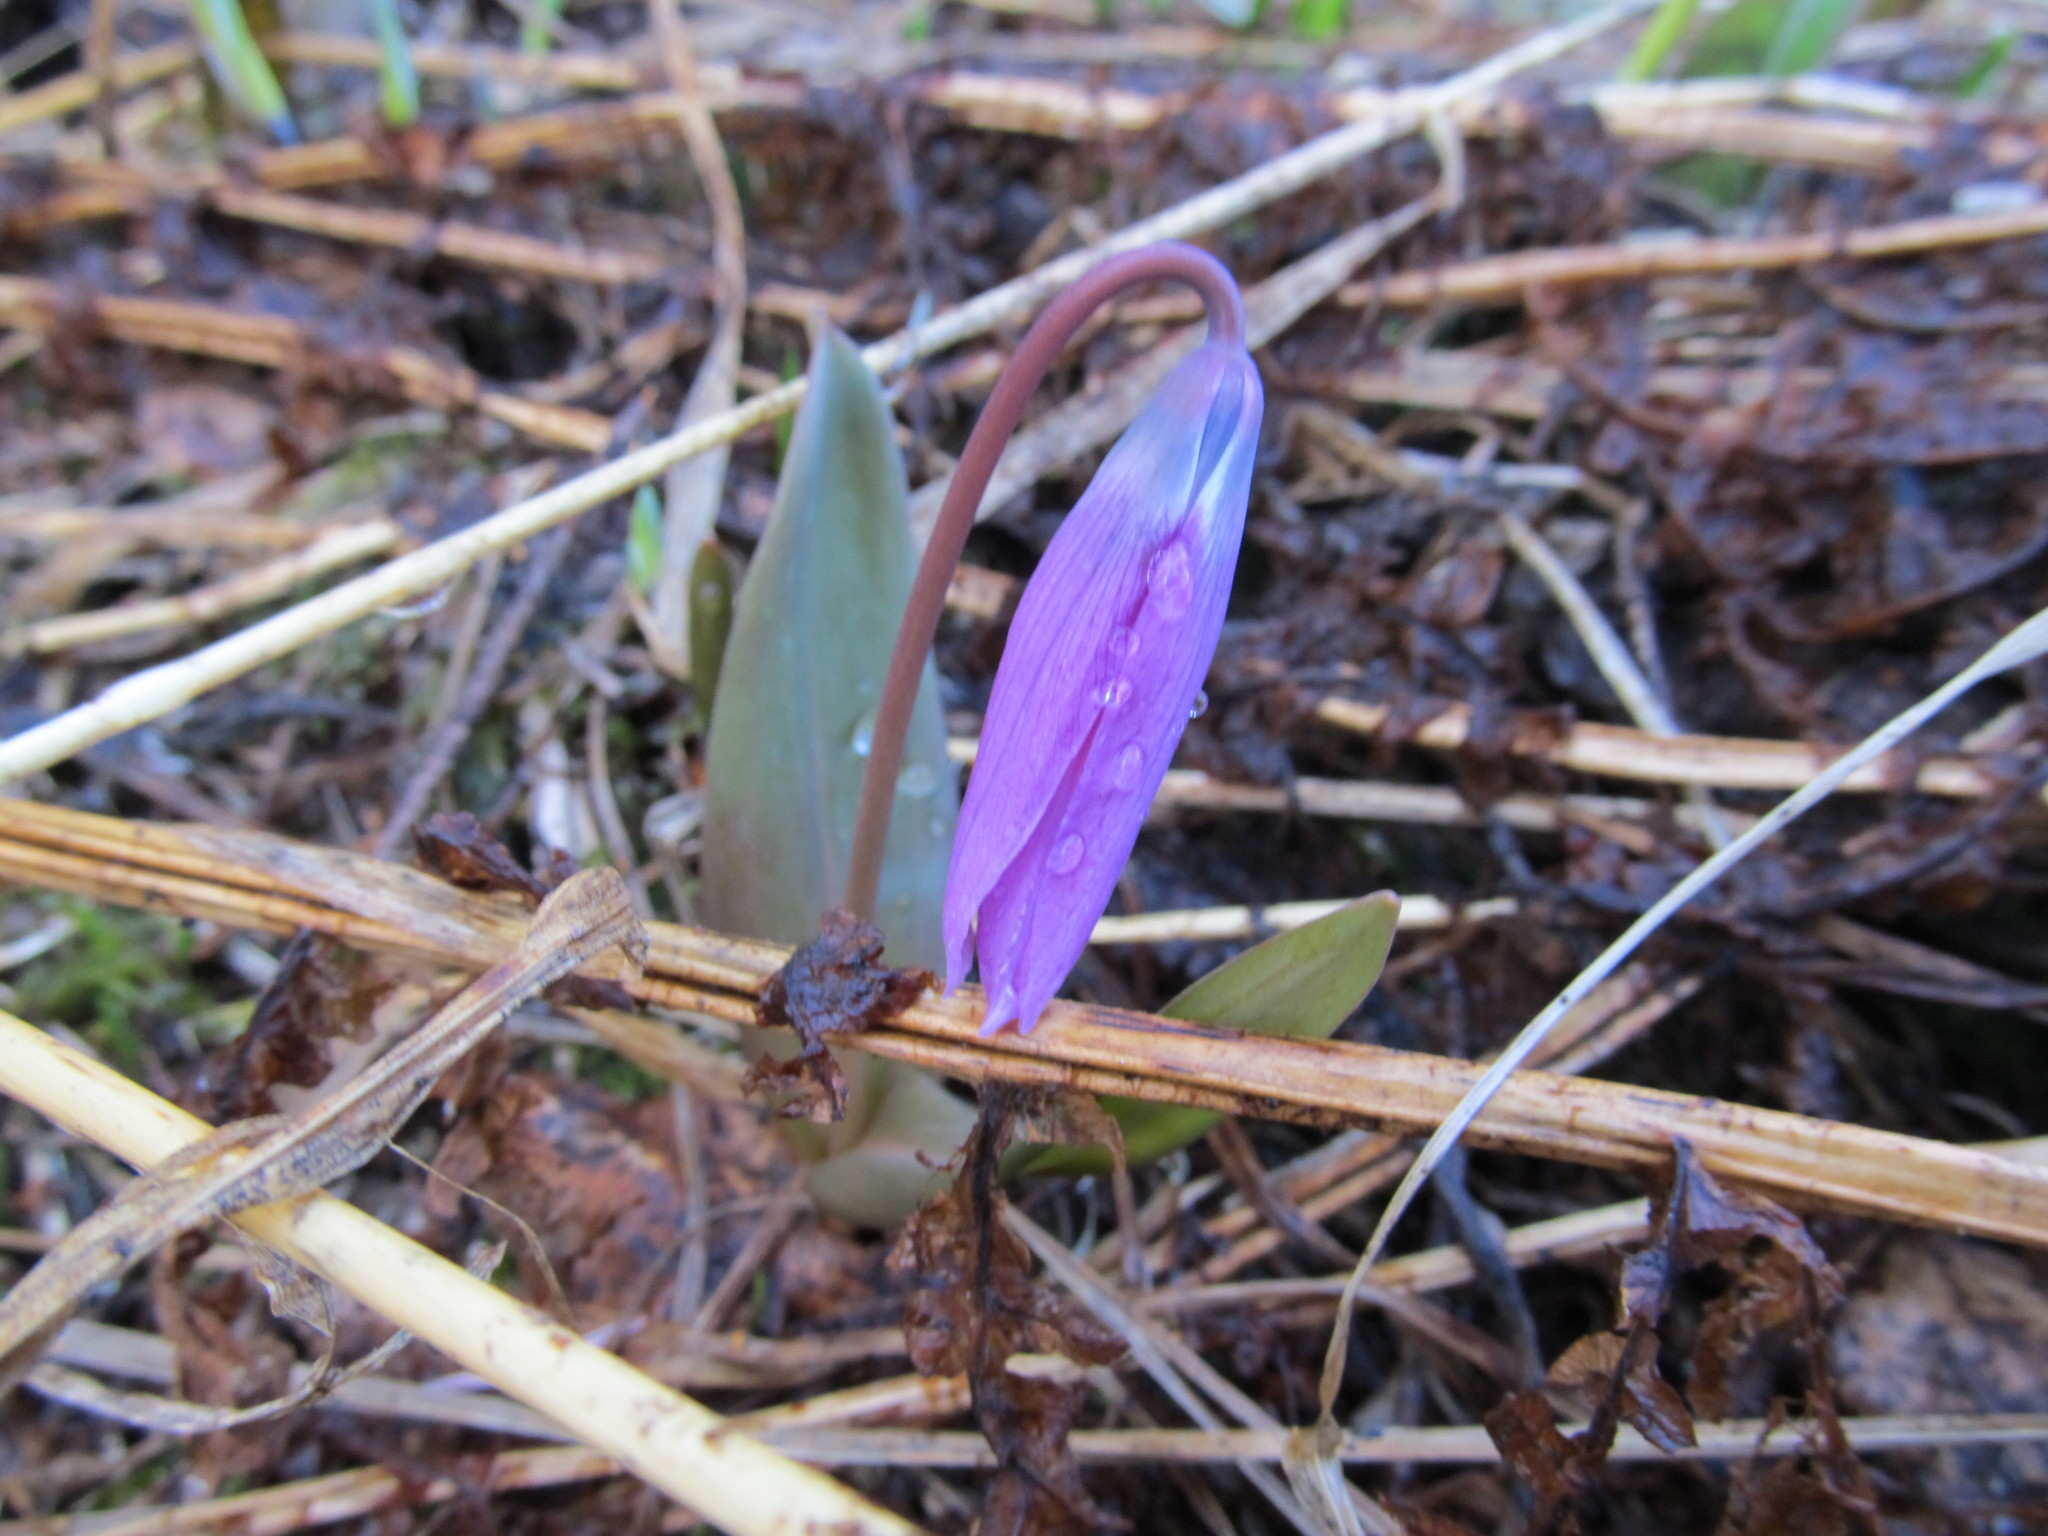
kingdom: Plantae
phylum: Tracheophyta
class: Liliopsida
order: Liliales
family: Liliaceae
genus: Erythronium
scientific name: Erythronium sibiricum
